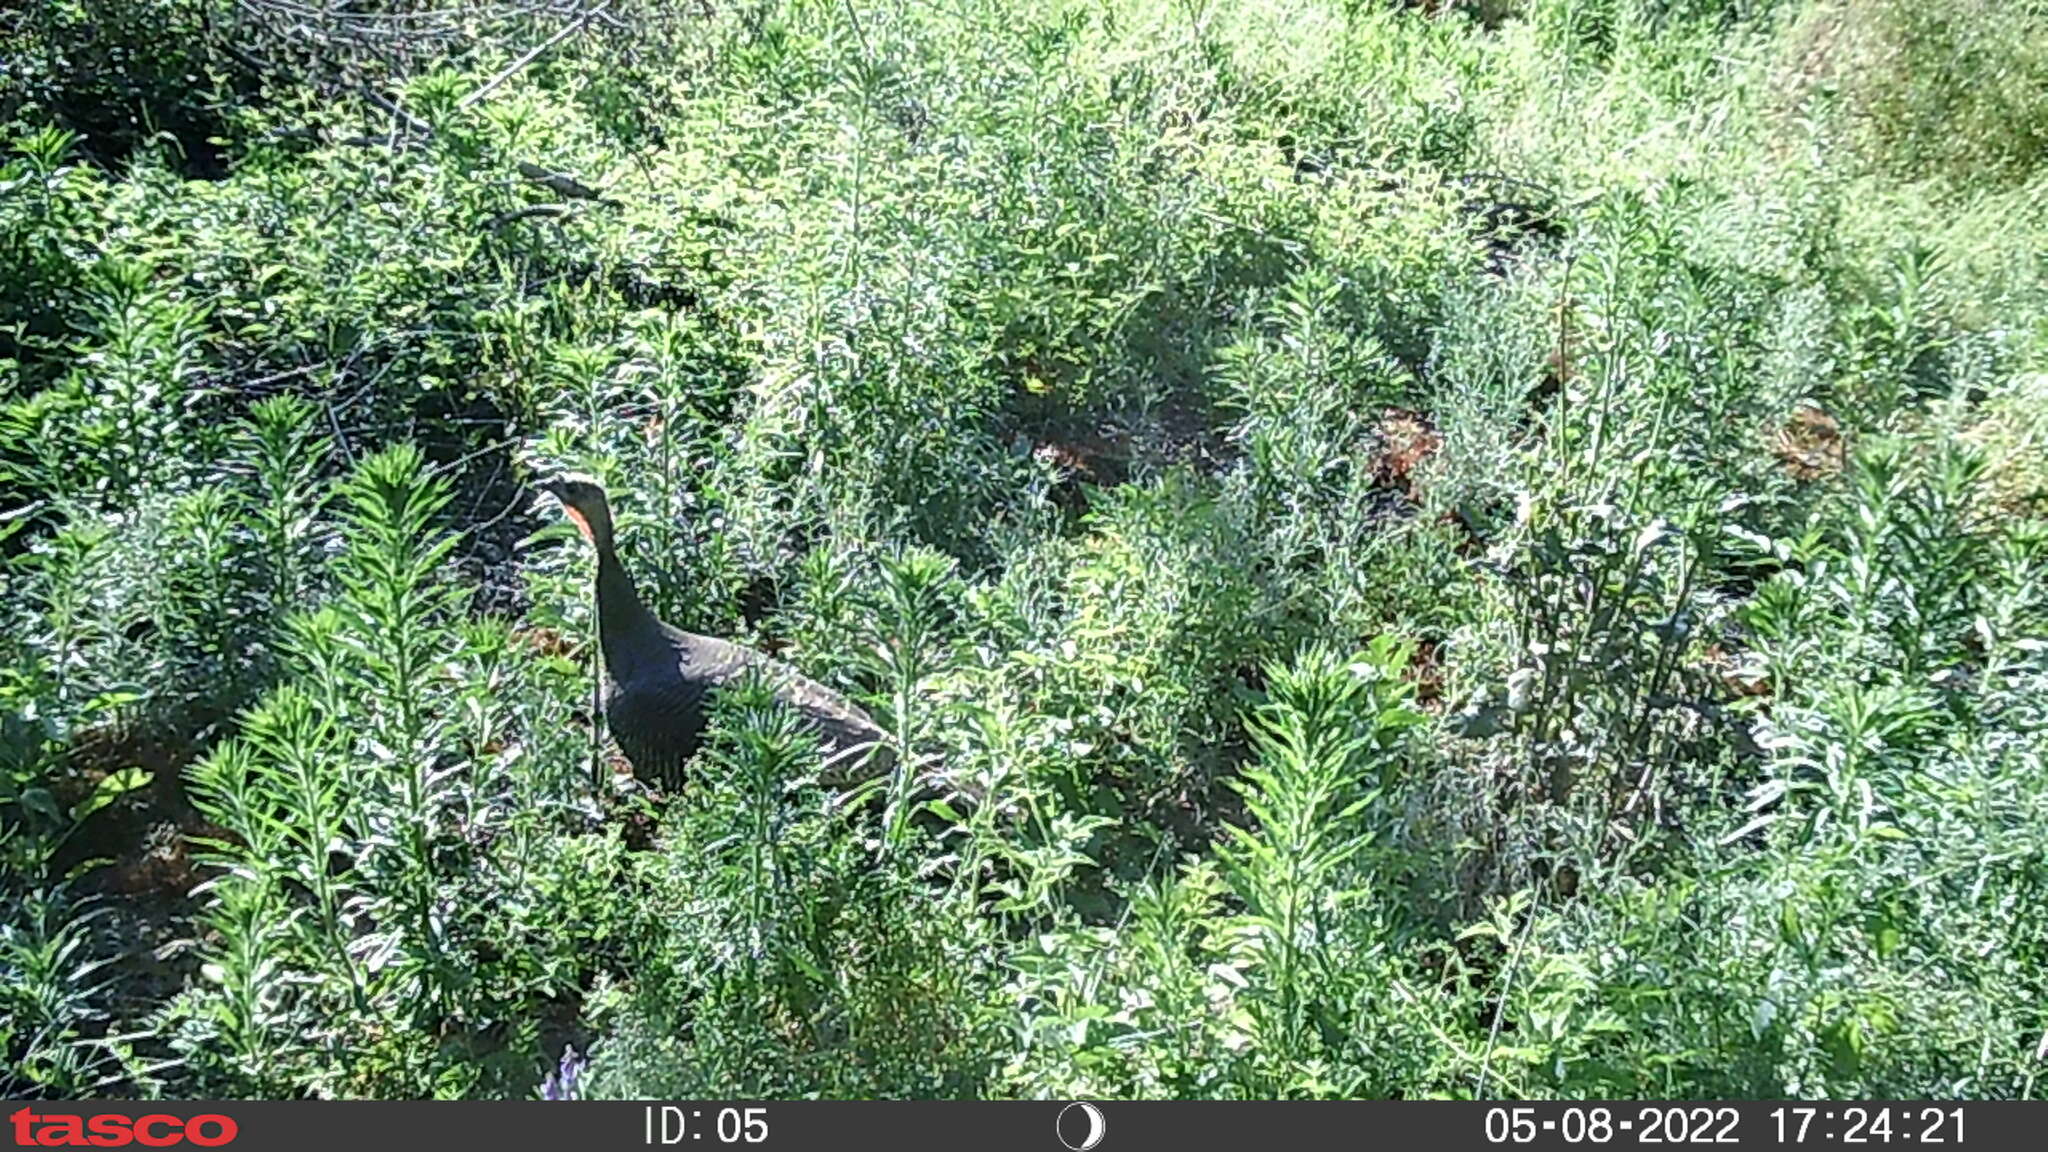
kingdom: Animalia
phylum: Chordata
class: Aves
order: Galliformes
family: Phasianidae
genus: Meleagris
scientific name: Meleagris gallopavo
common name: Wild turkey
